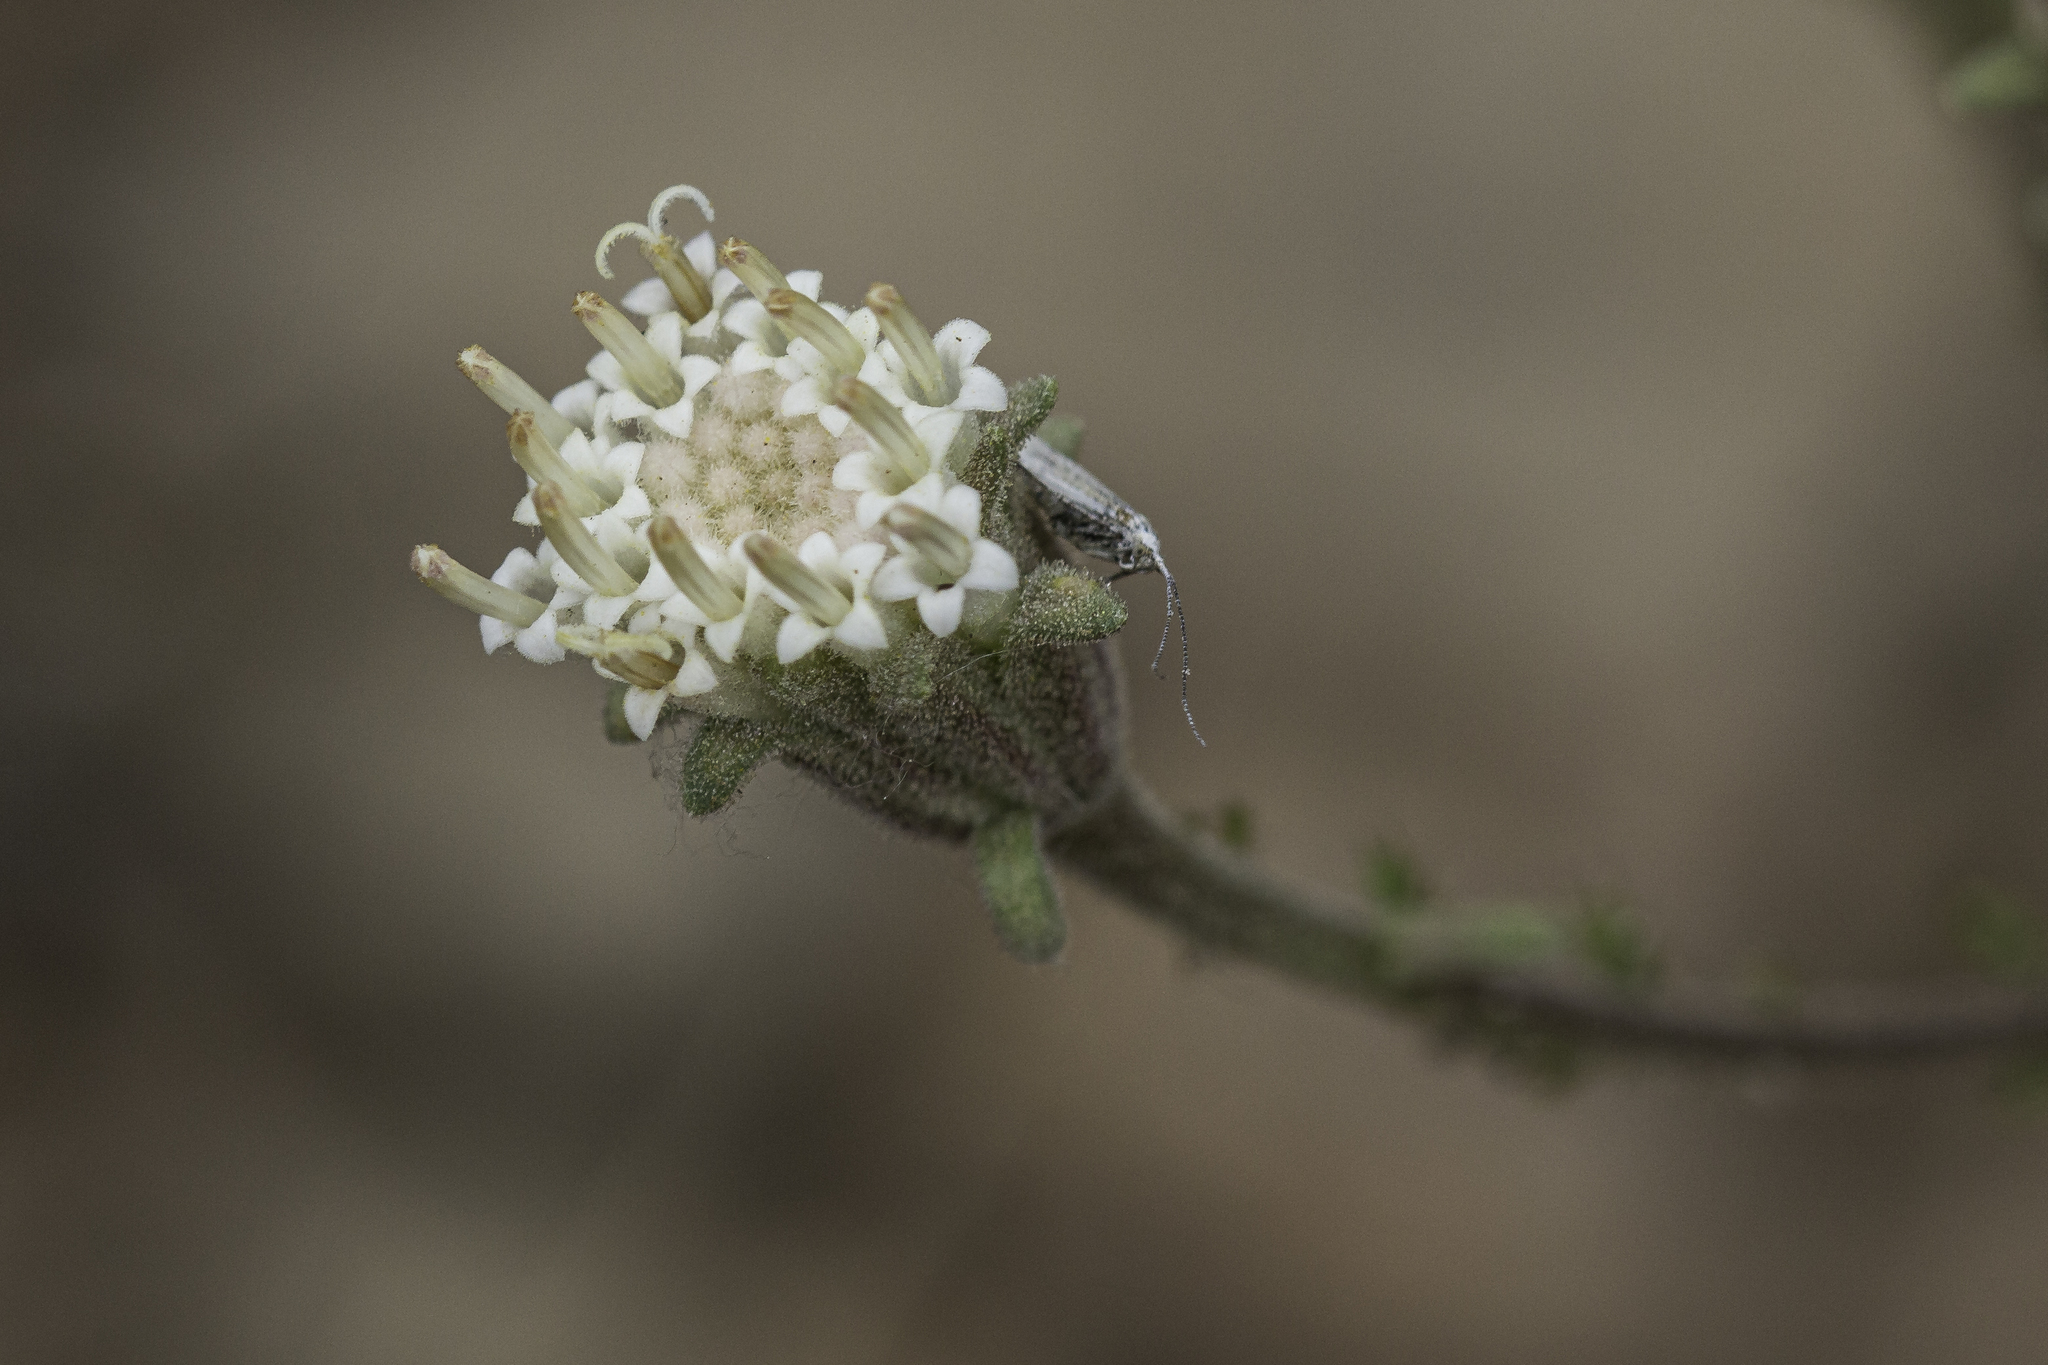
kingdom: Plantae
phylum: Tracheophyta
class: Magnoliopsida
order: Asterales
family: Asteraceae
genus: Chaenactis
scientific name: Chaenactis douglasii
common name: Hoary pincushion
